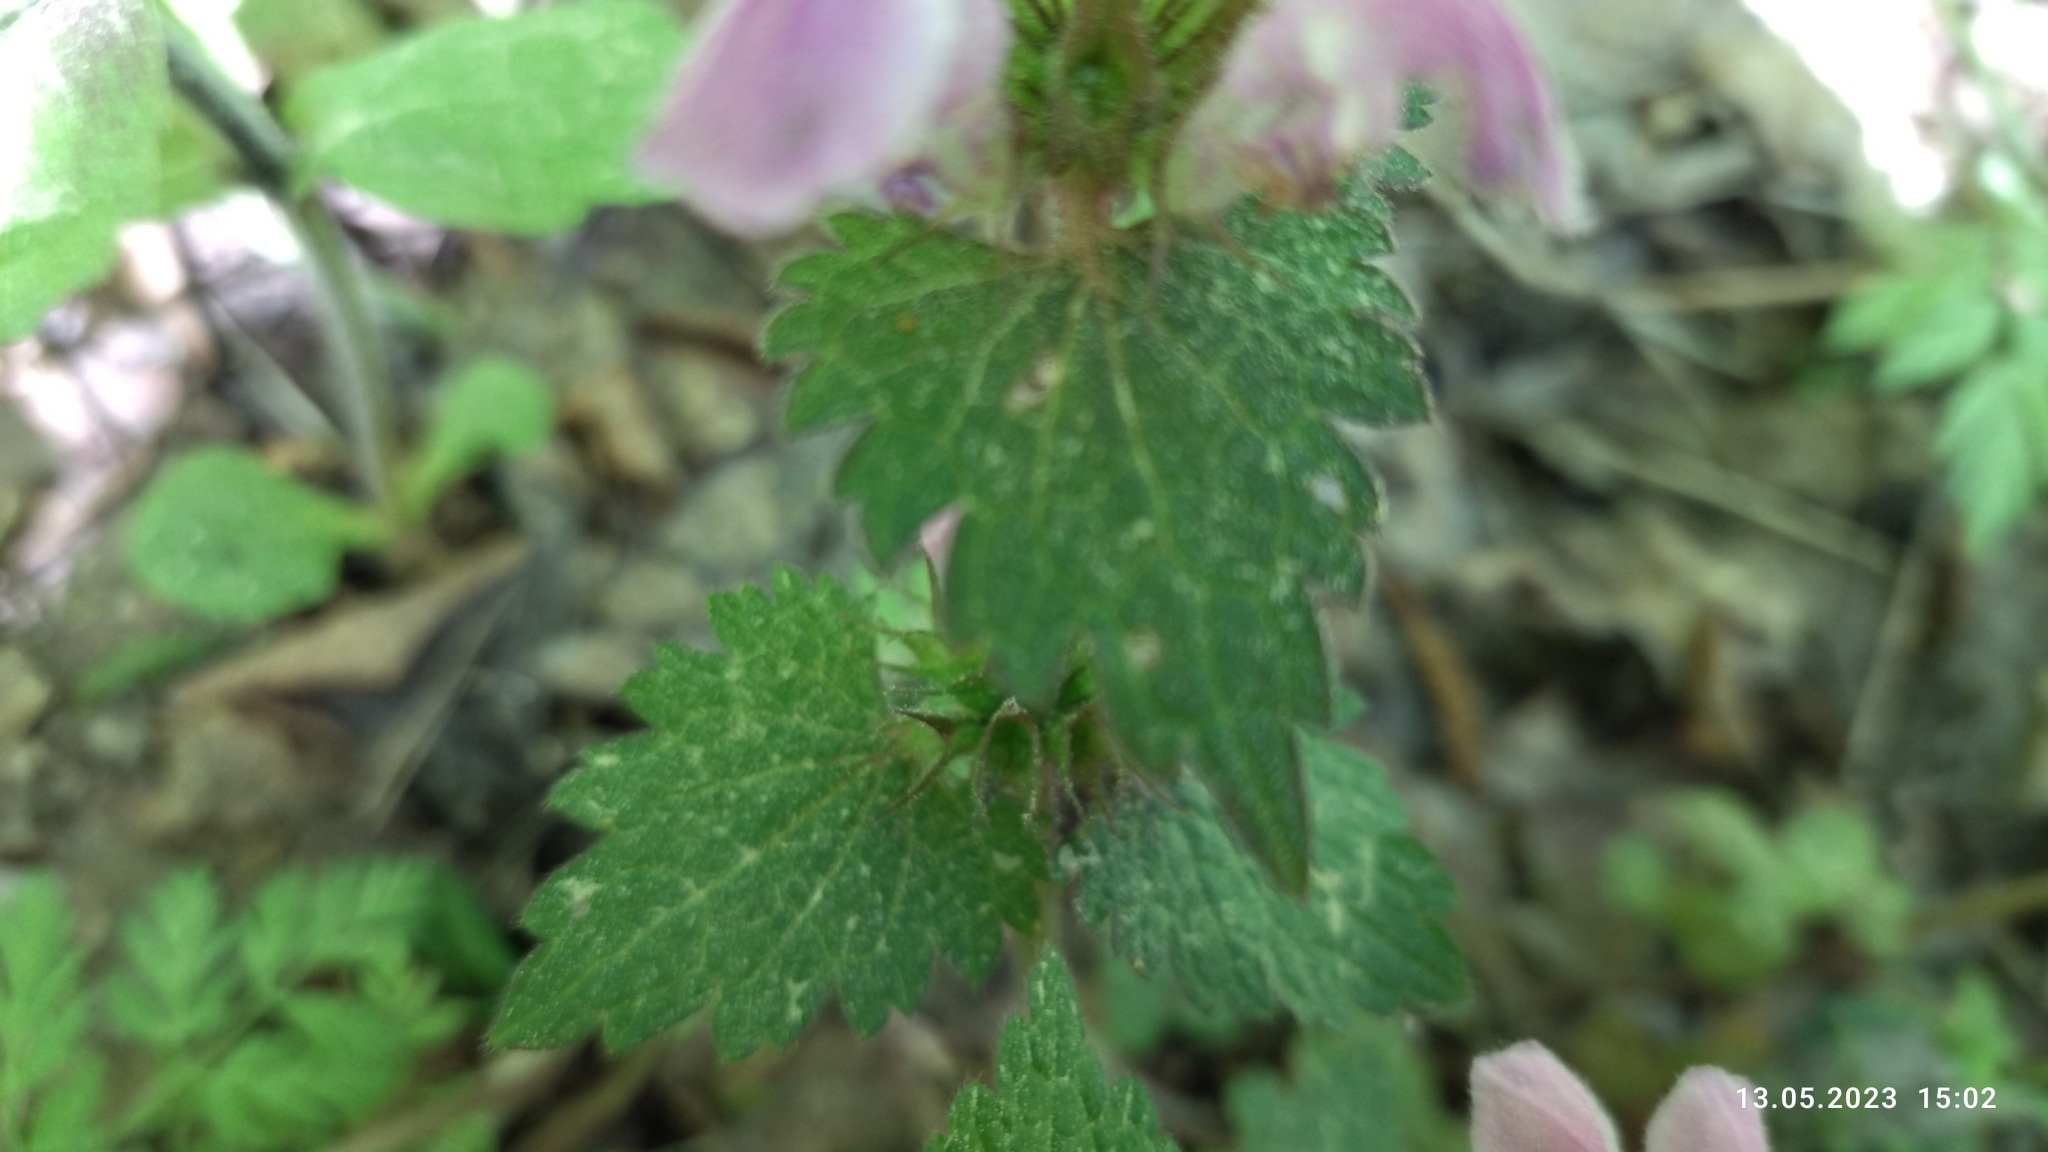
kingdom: Plantae
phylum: Tracheophyta
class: Magnoliopsida
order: Lamiales
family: Lamiaceae
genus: Lamium
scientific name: Lamium maculatum
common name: Spotted dead-nettle
